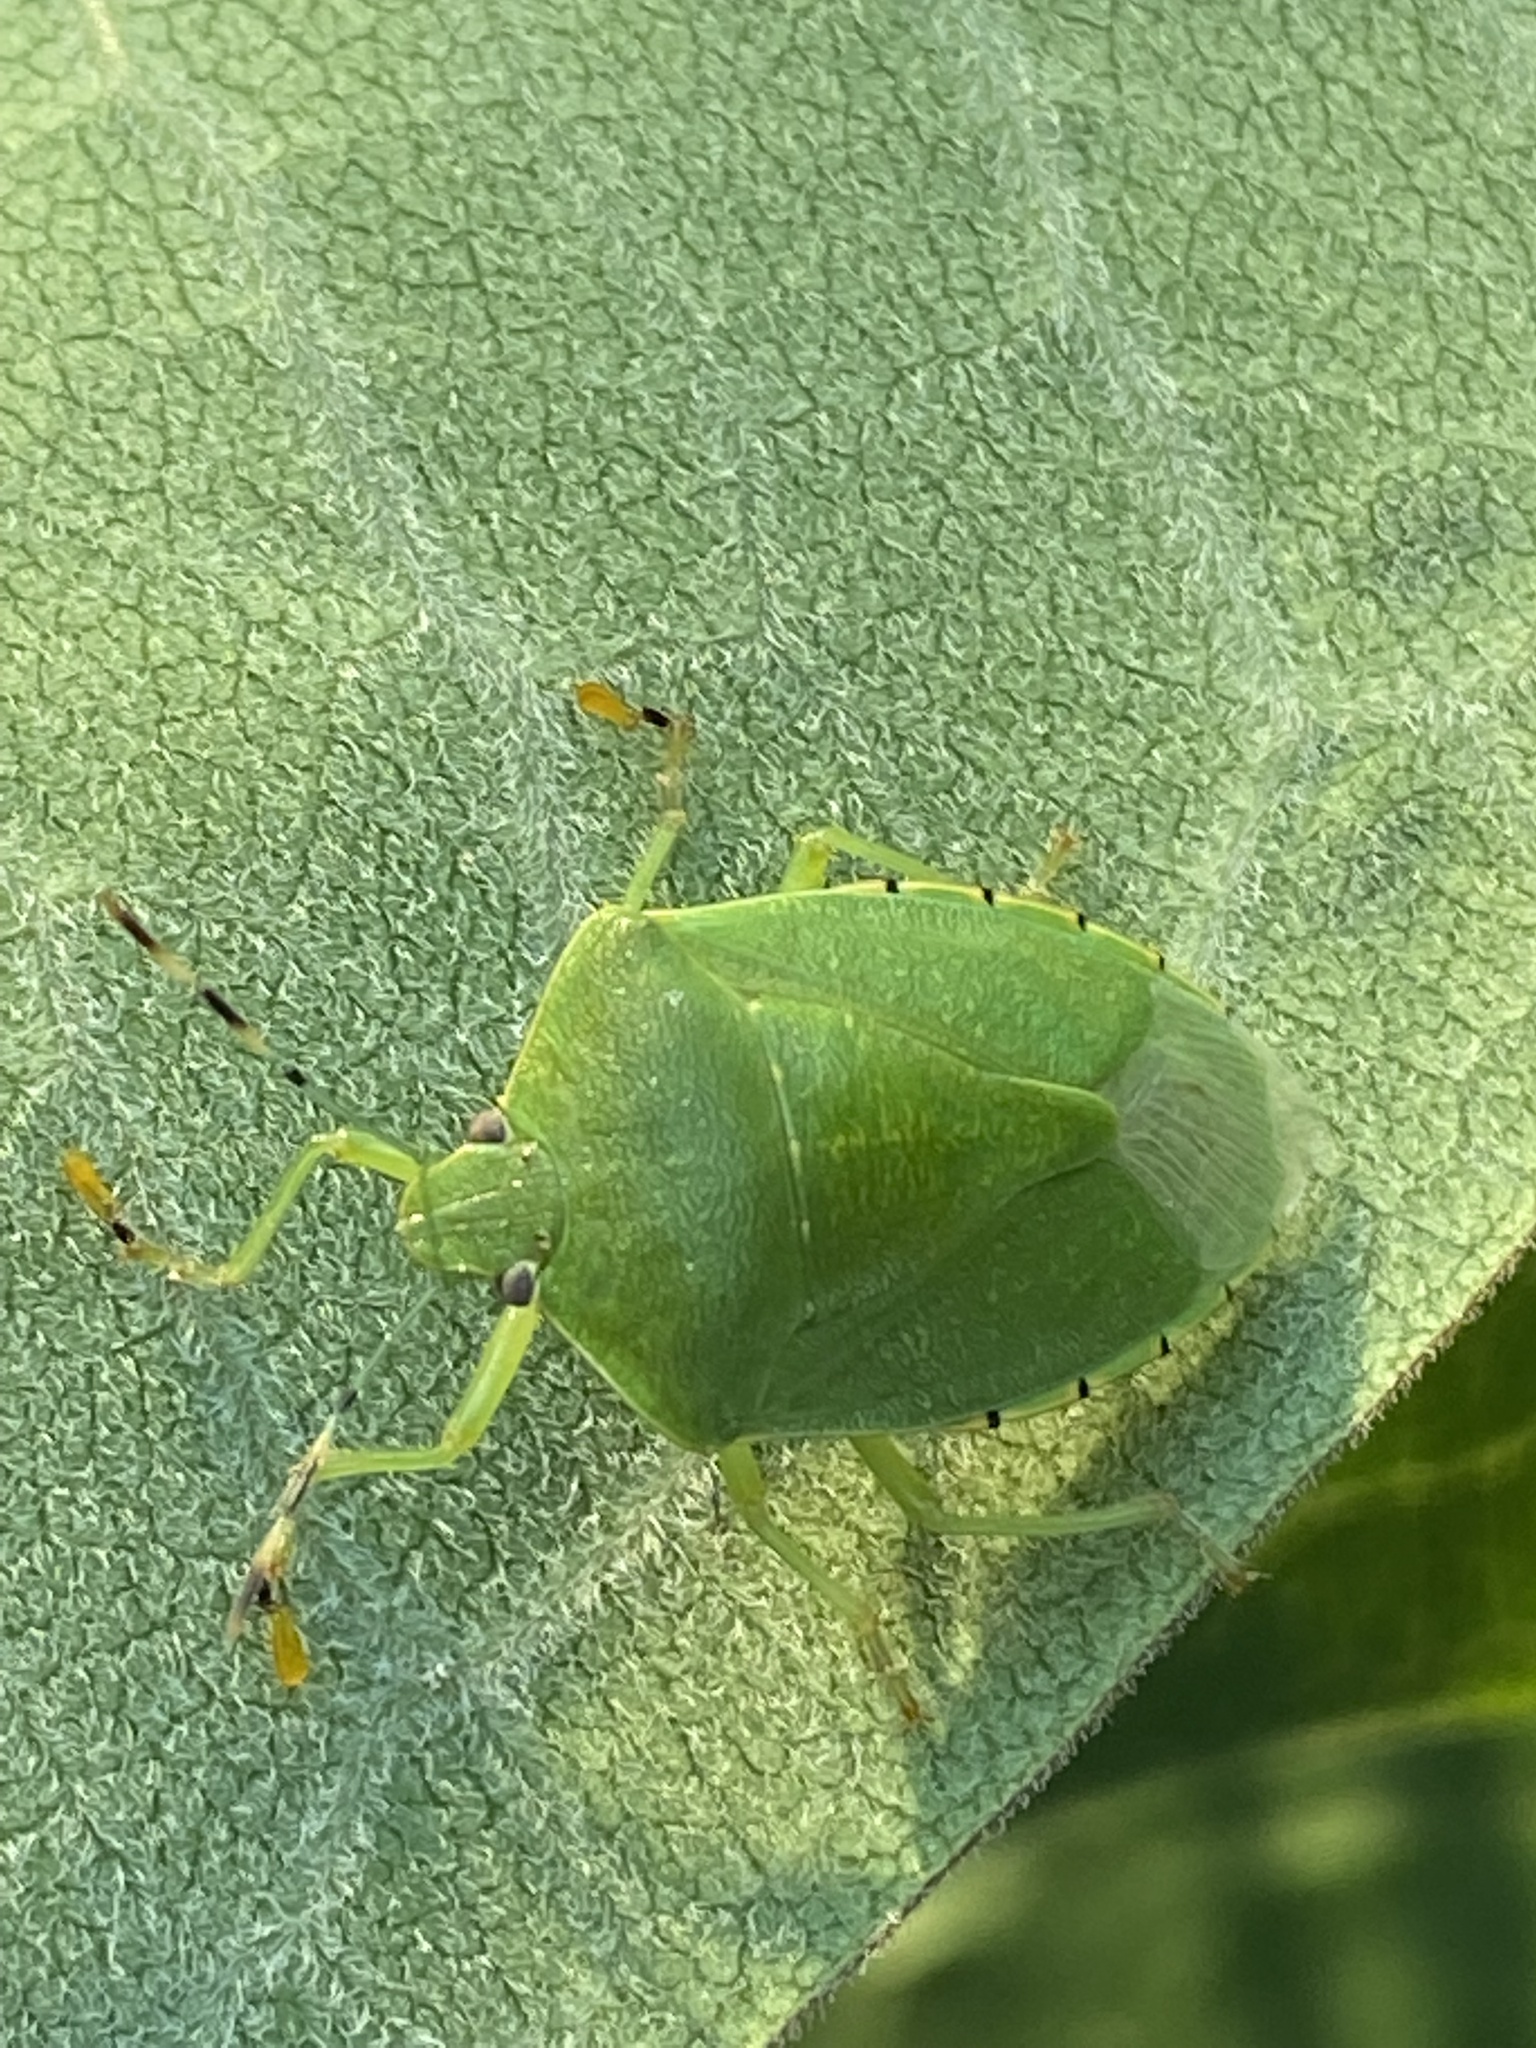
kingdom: Animalia
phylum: Arthropoda
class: Insecta
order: Hemiptera
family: Pentatomidae
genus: Chinavia
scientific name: Chinavia hilaris
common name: Green stink bug
